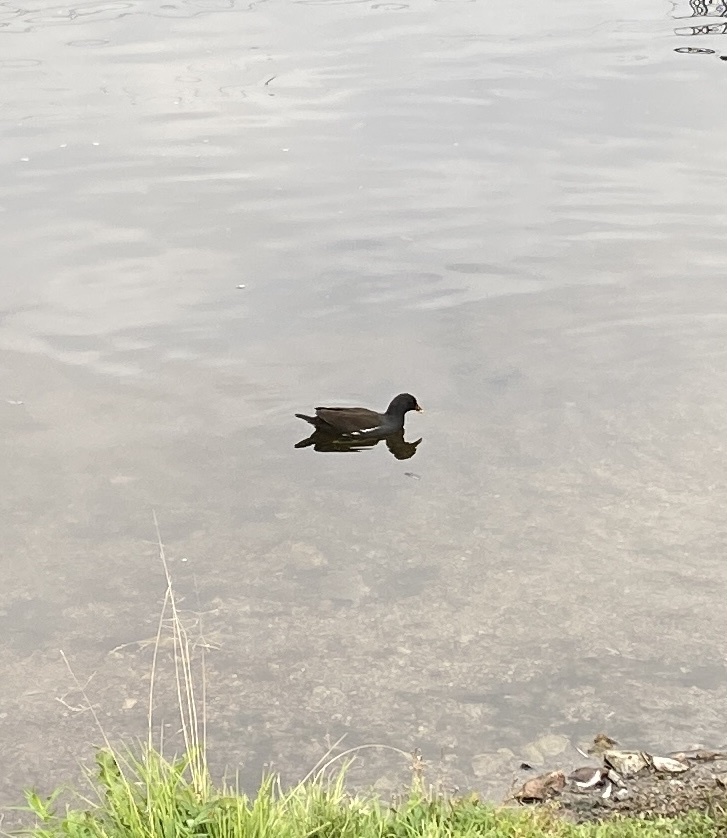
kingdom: Animalia
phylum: Chordata
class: Aves
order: Gruiformes
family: Rallidae
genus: Gallinula
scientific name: Gallinula chloropus
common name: Common moorhen
